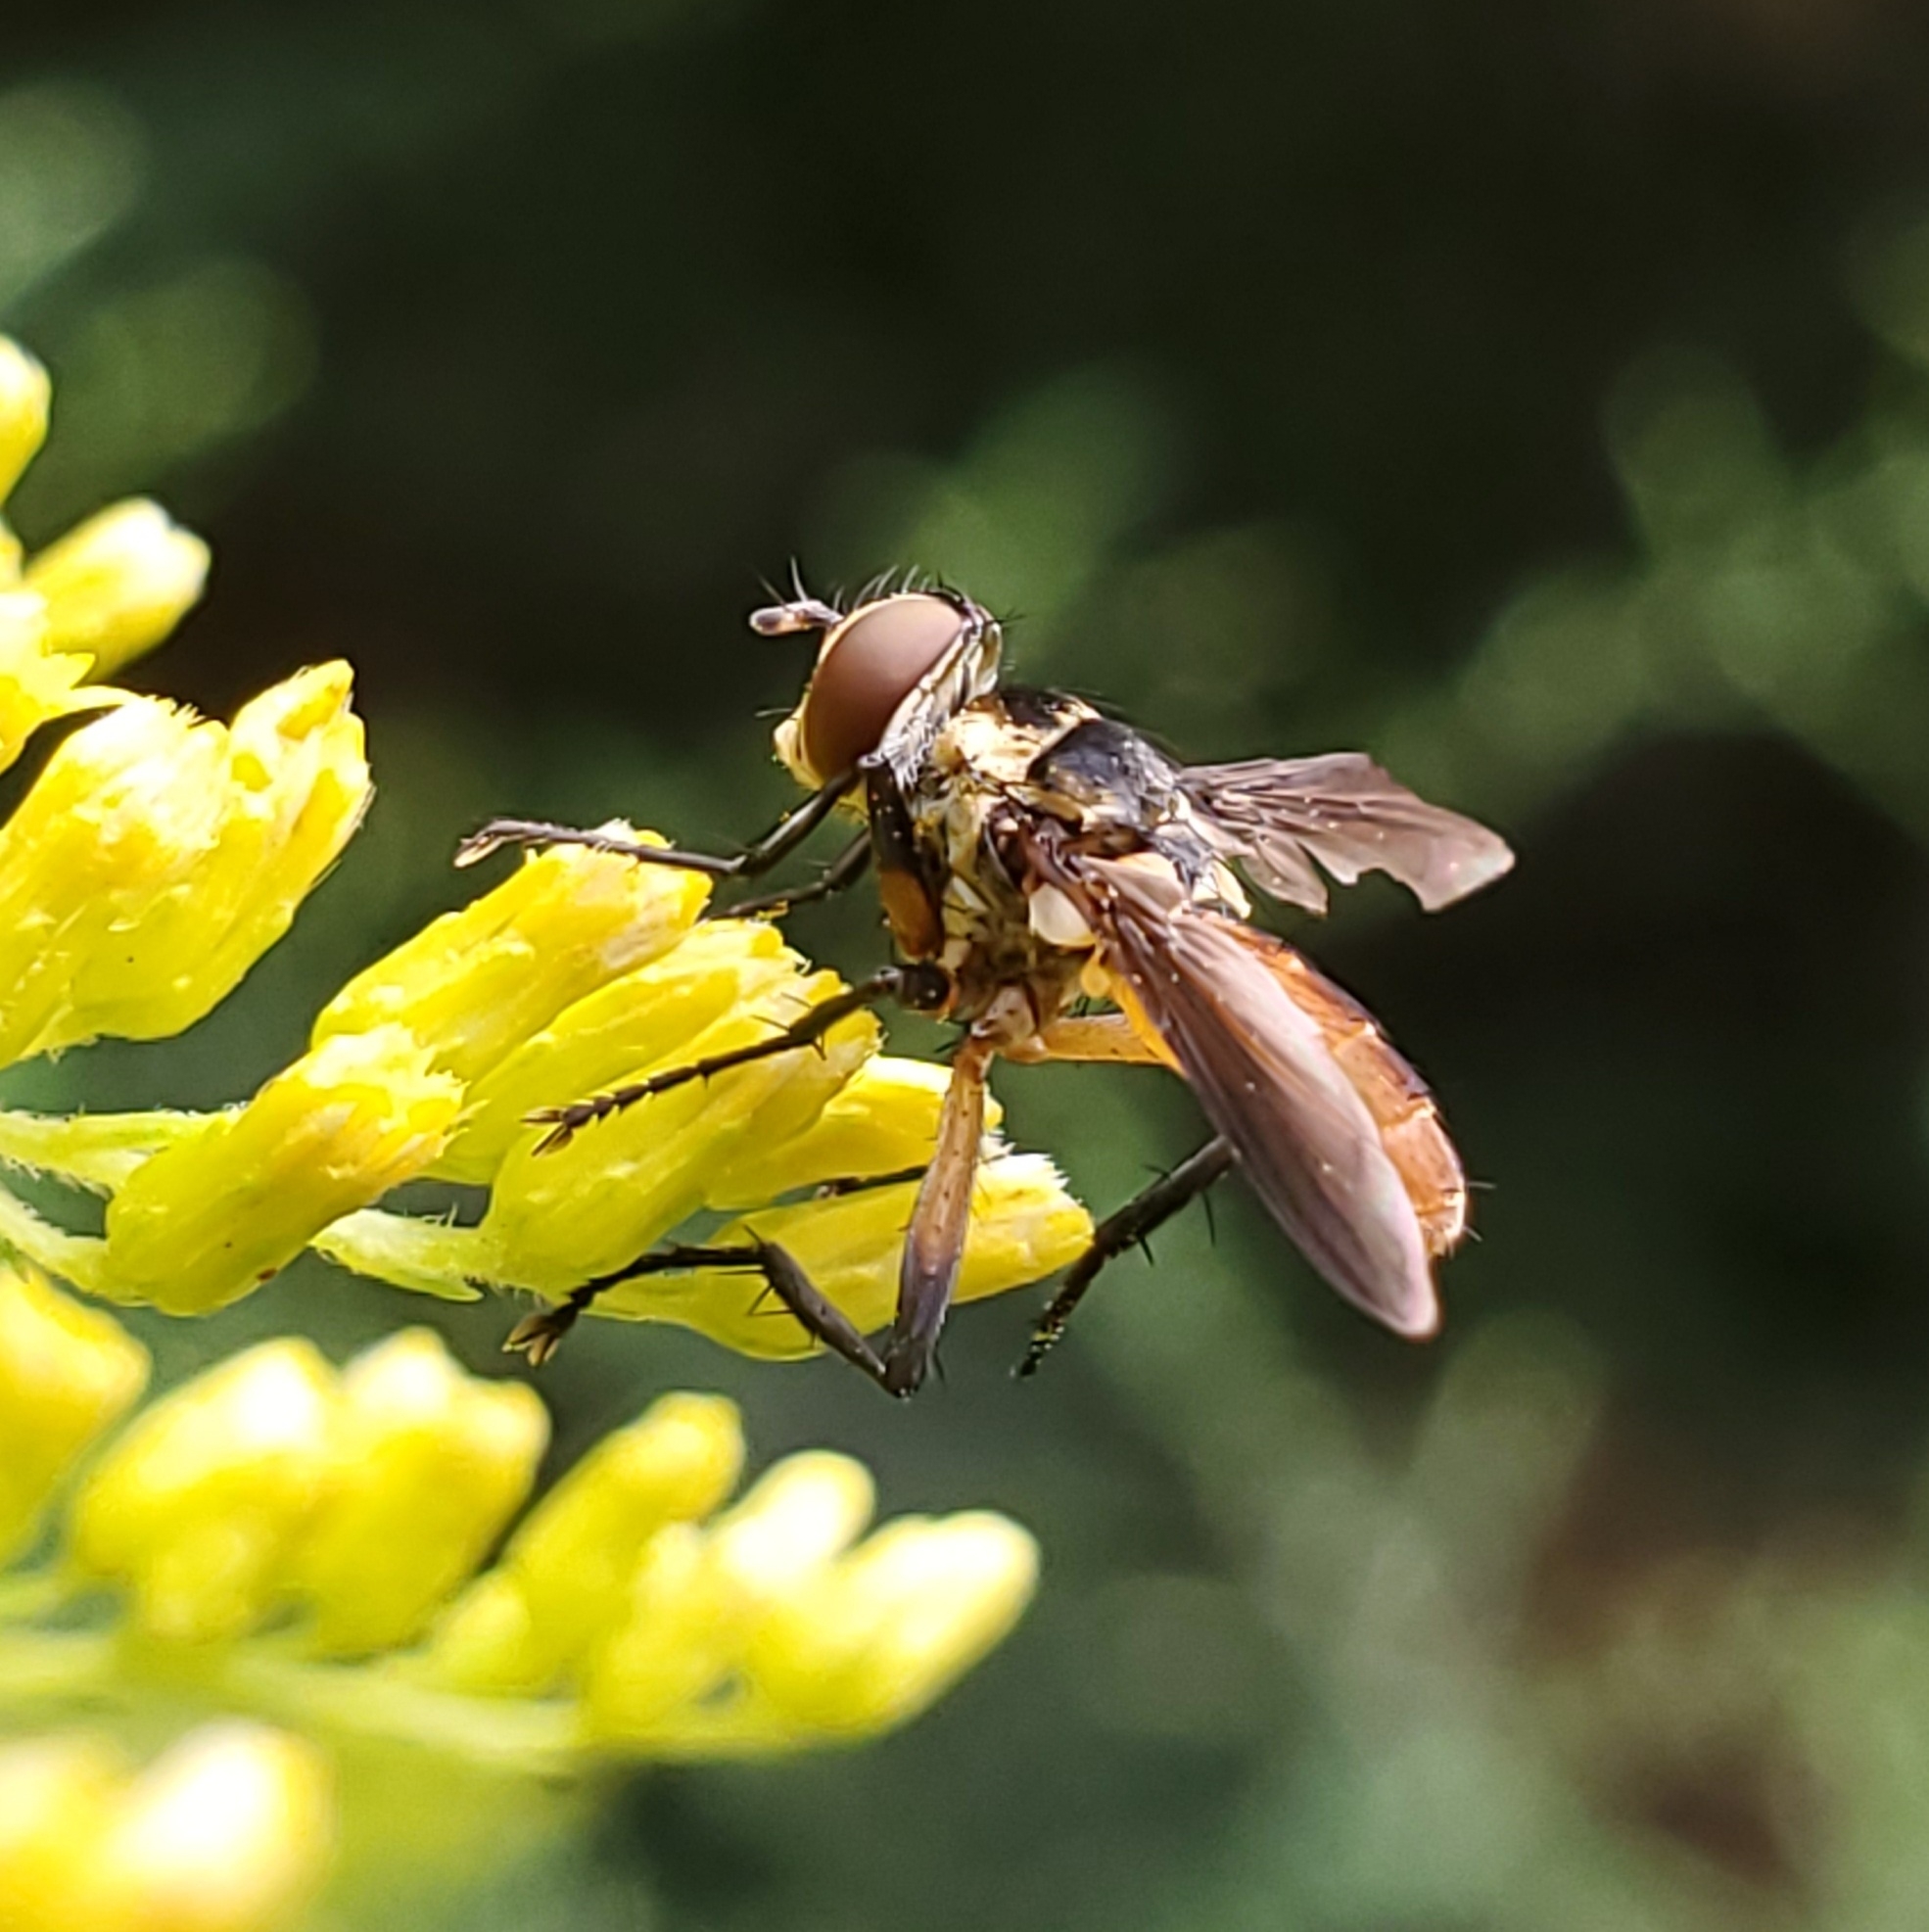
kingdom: Animalia
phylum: Arthropoda
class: Insecta
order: Diptera
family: Tachinidae
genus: Trichopoda
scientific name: Trichopoda pennipes
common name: Tachinid fly
